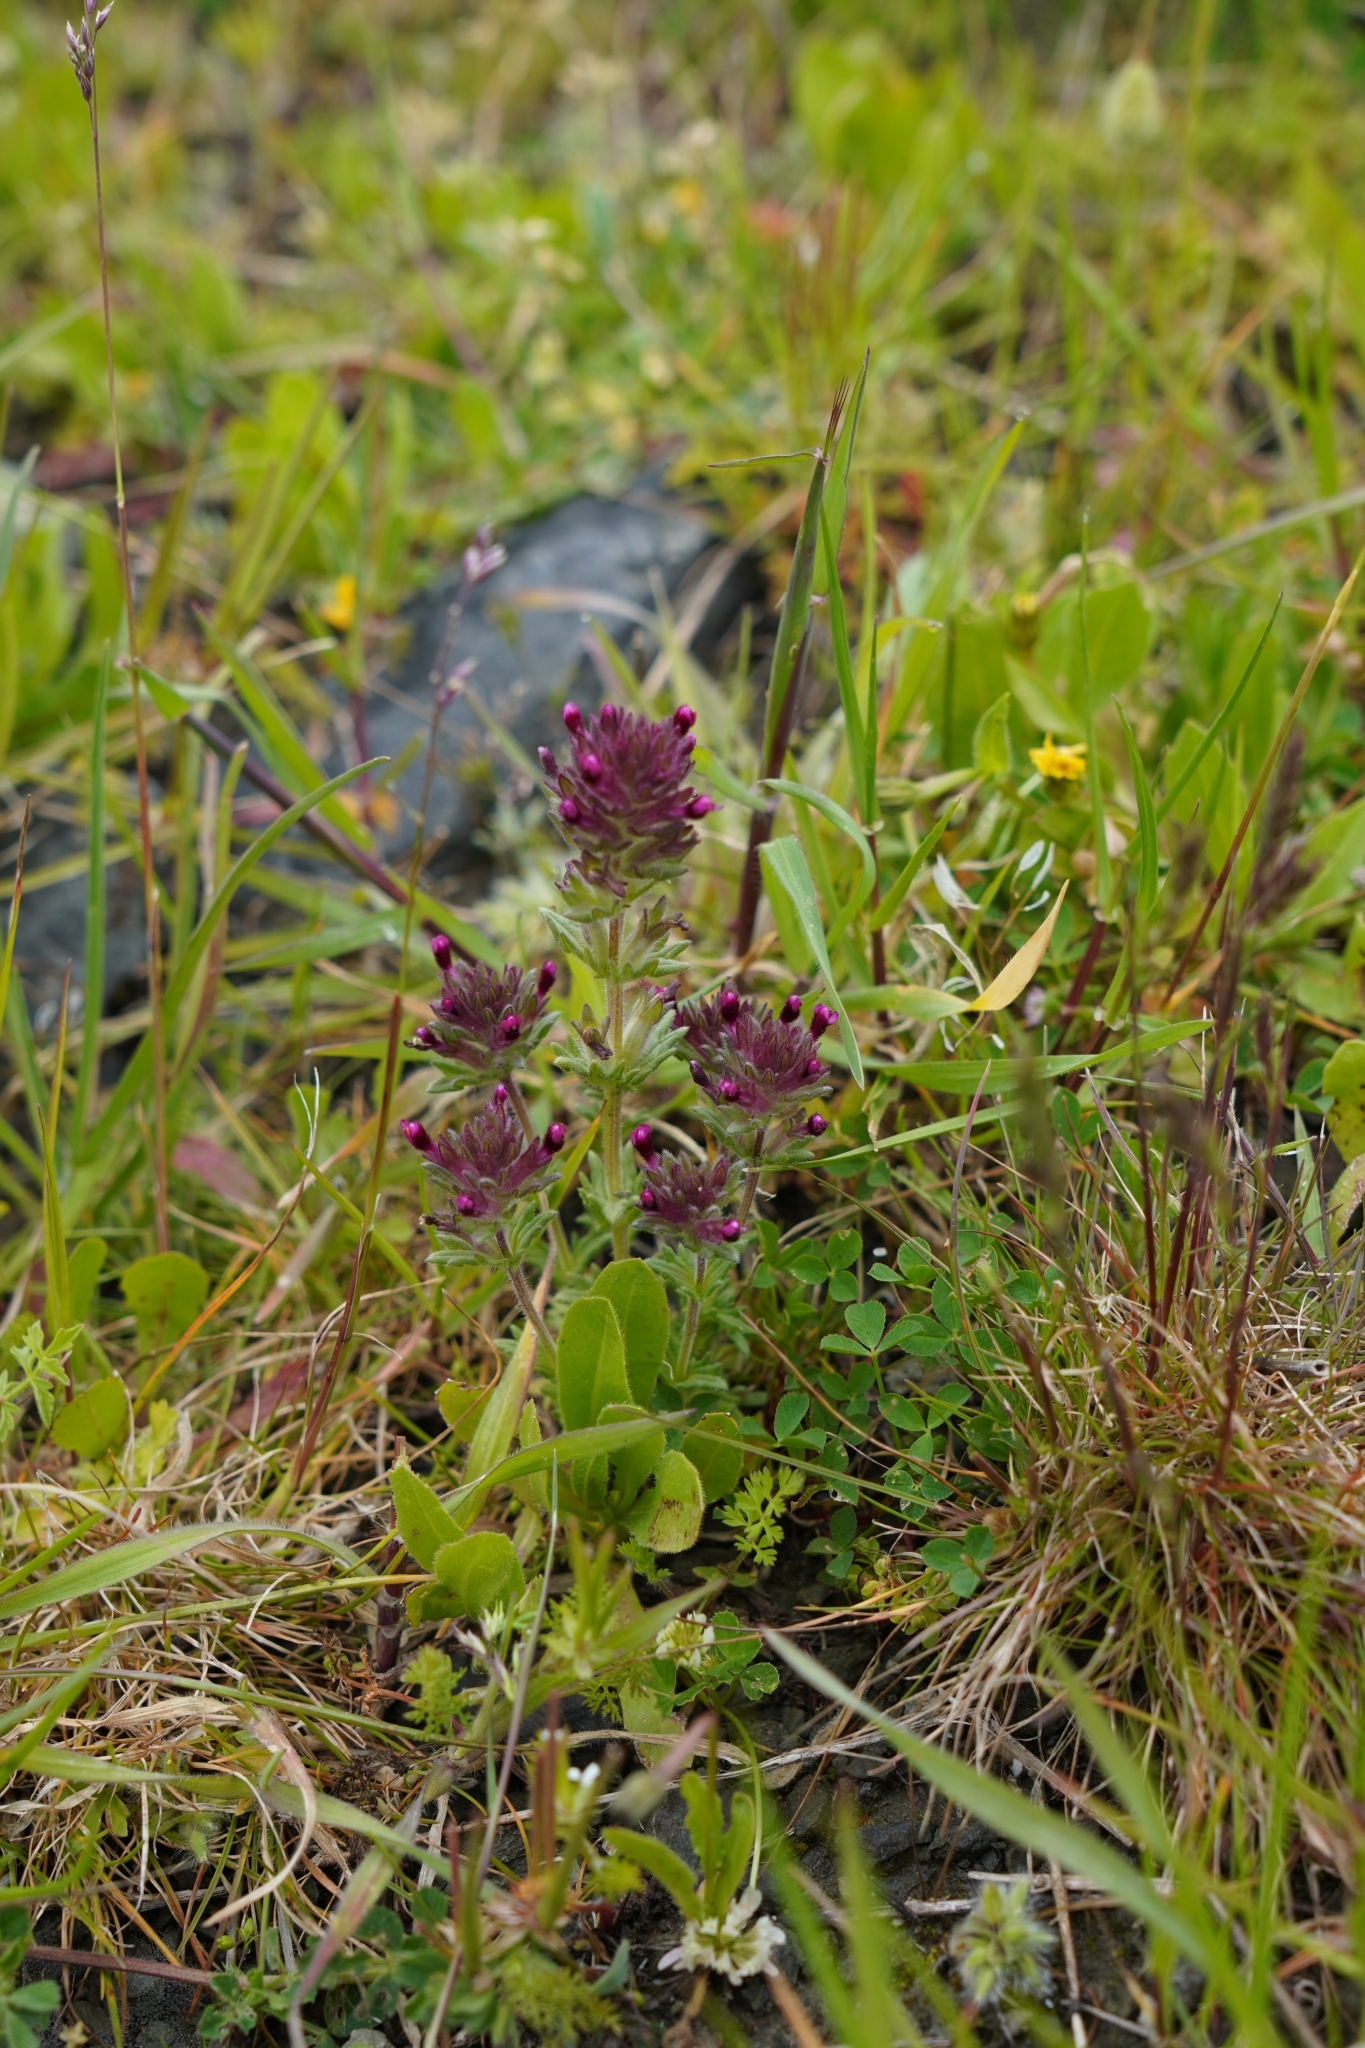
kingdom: Plantae
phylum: Tracheophyta
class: Magnoliopsida
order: Lamiales
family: Orobanchaceae
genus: Parentucellia
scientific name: Parentucellia latifolia
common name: Broadleaf glandweed
